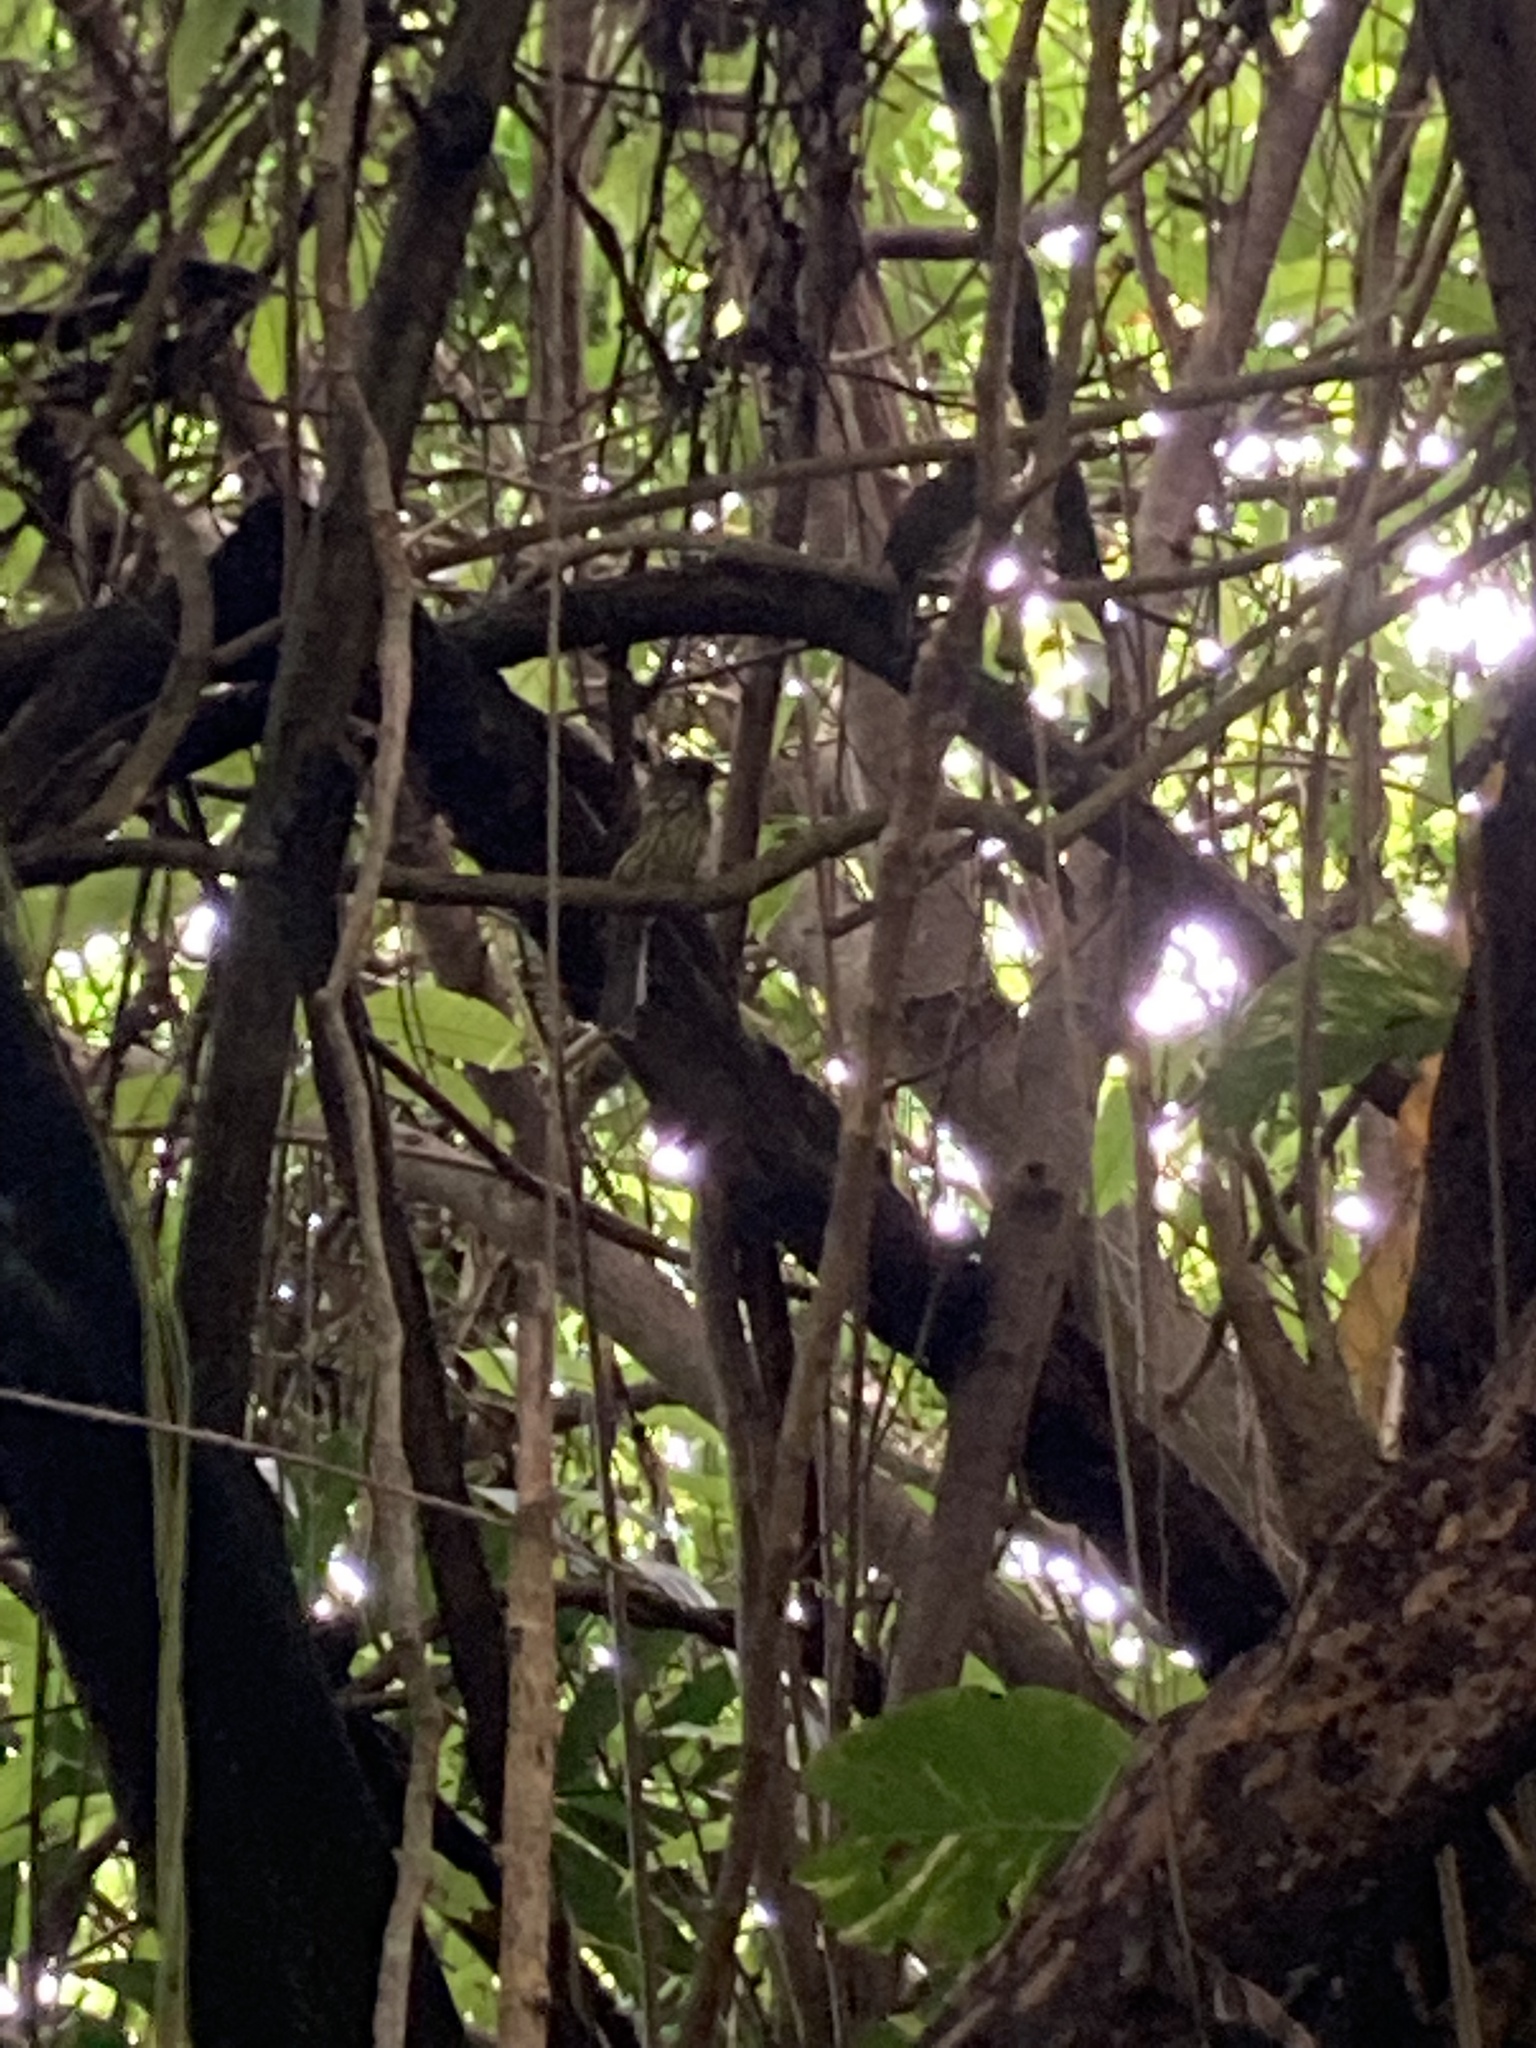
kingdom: Animalia
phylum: Chordata
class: Aves
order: Passeriformes
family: Dulidae
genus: Dulus
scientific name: Dulus dominicus
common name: Palmchat
